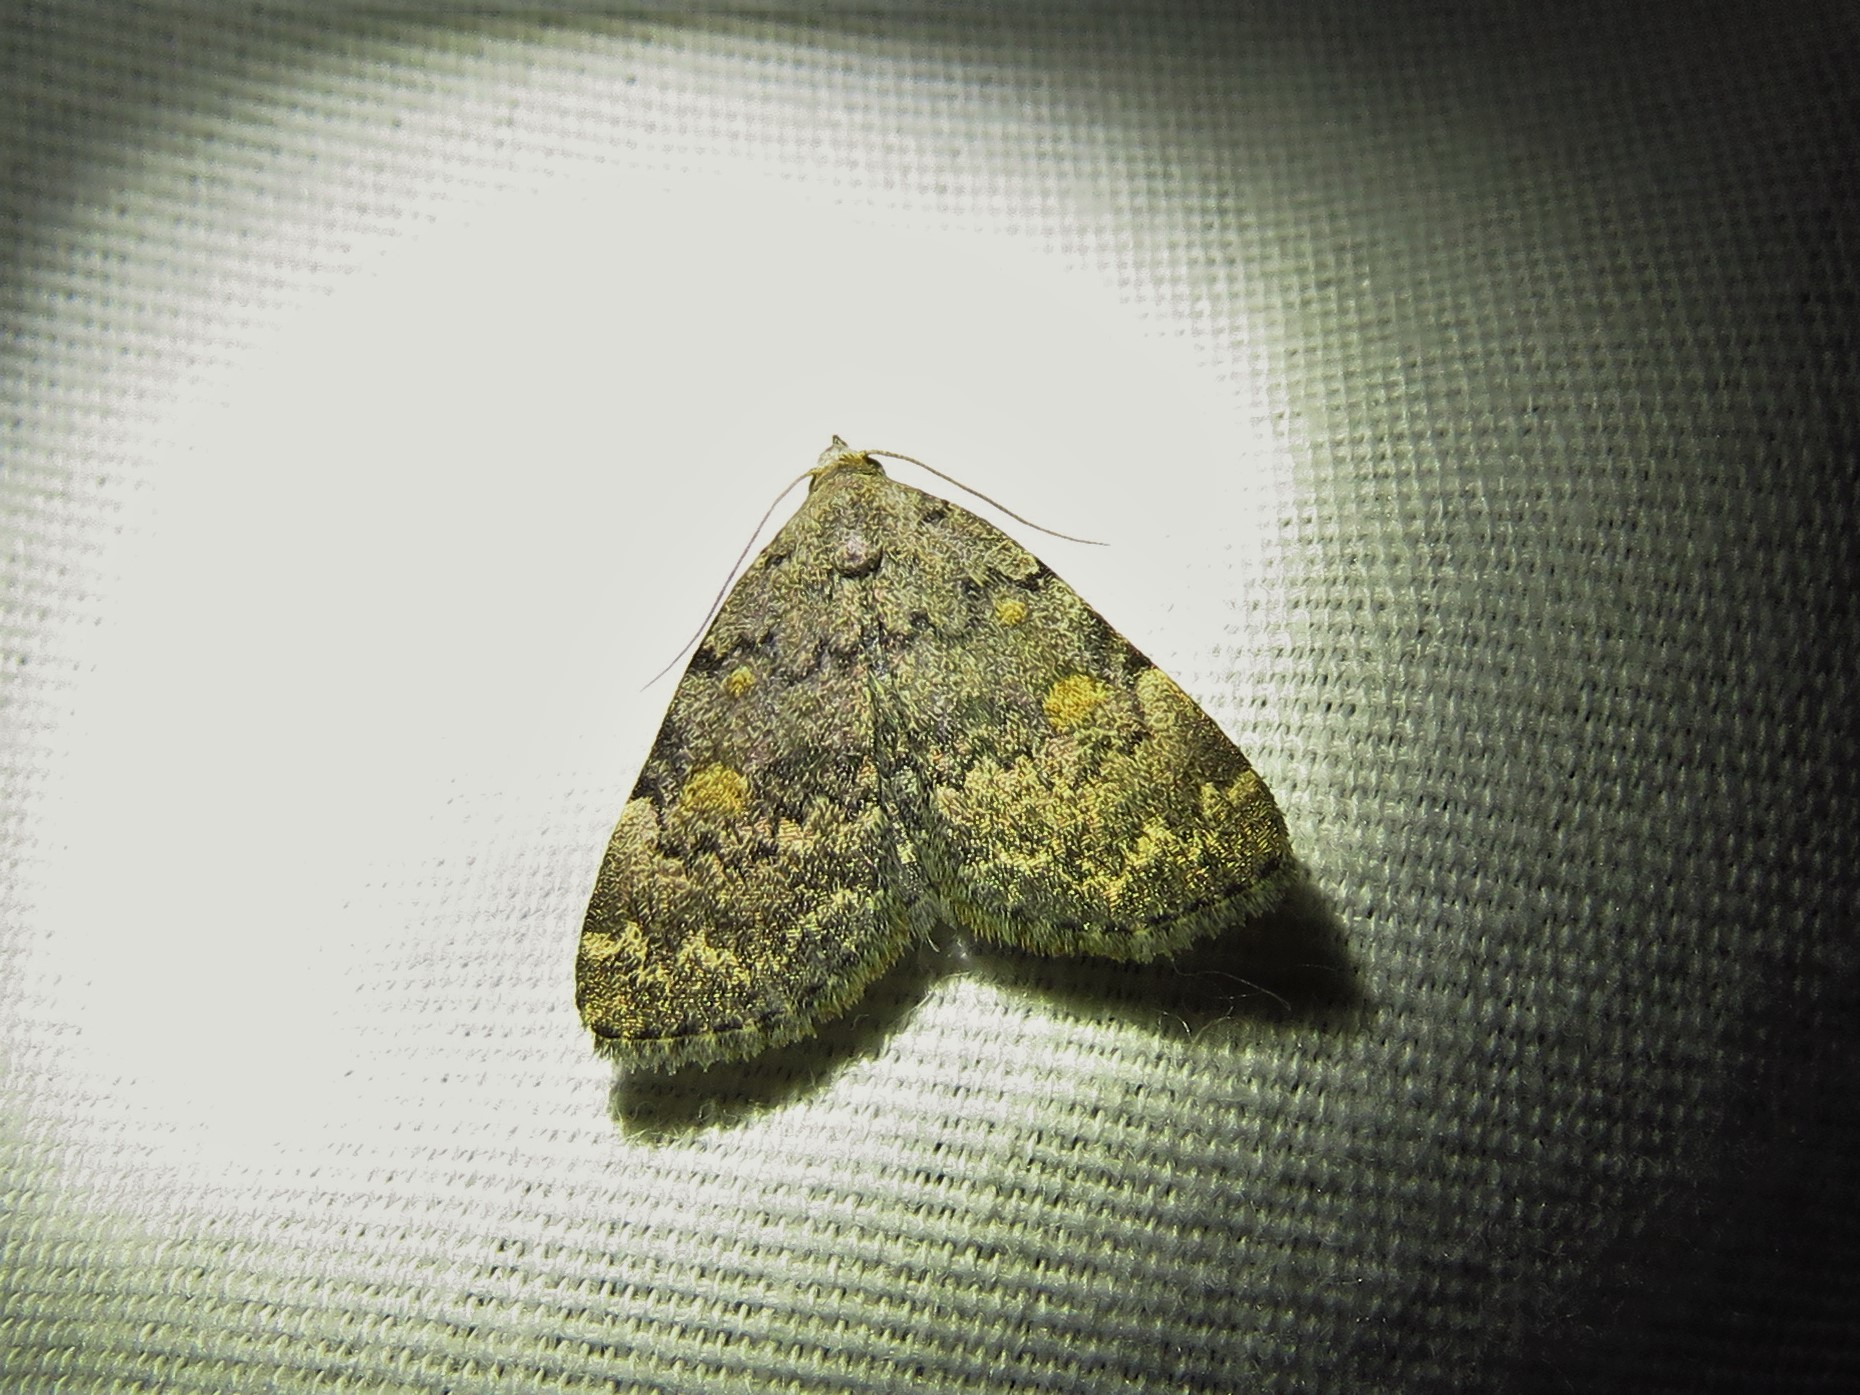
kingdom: Animalia
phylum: Arthropoda
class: Insecta
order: Lepidoptera
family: Erebidae
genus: Idia
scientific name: Idia aemula
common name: Common idia moth
